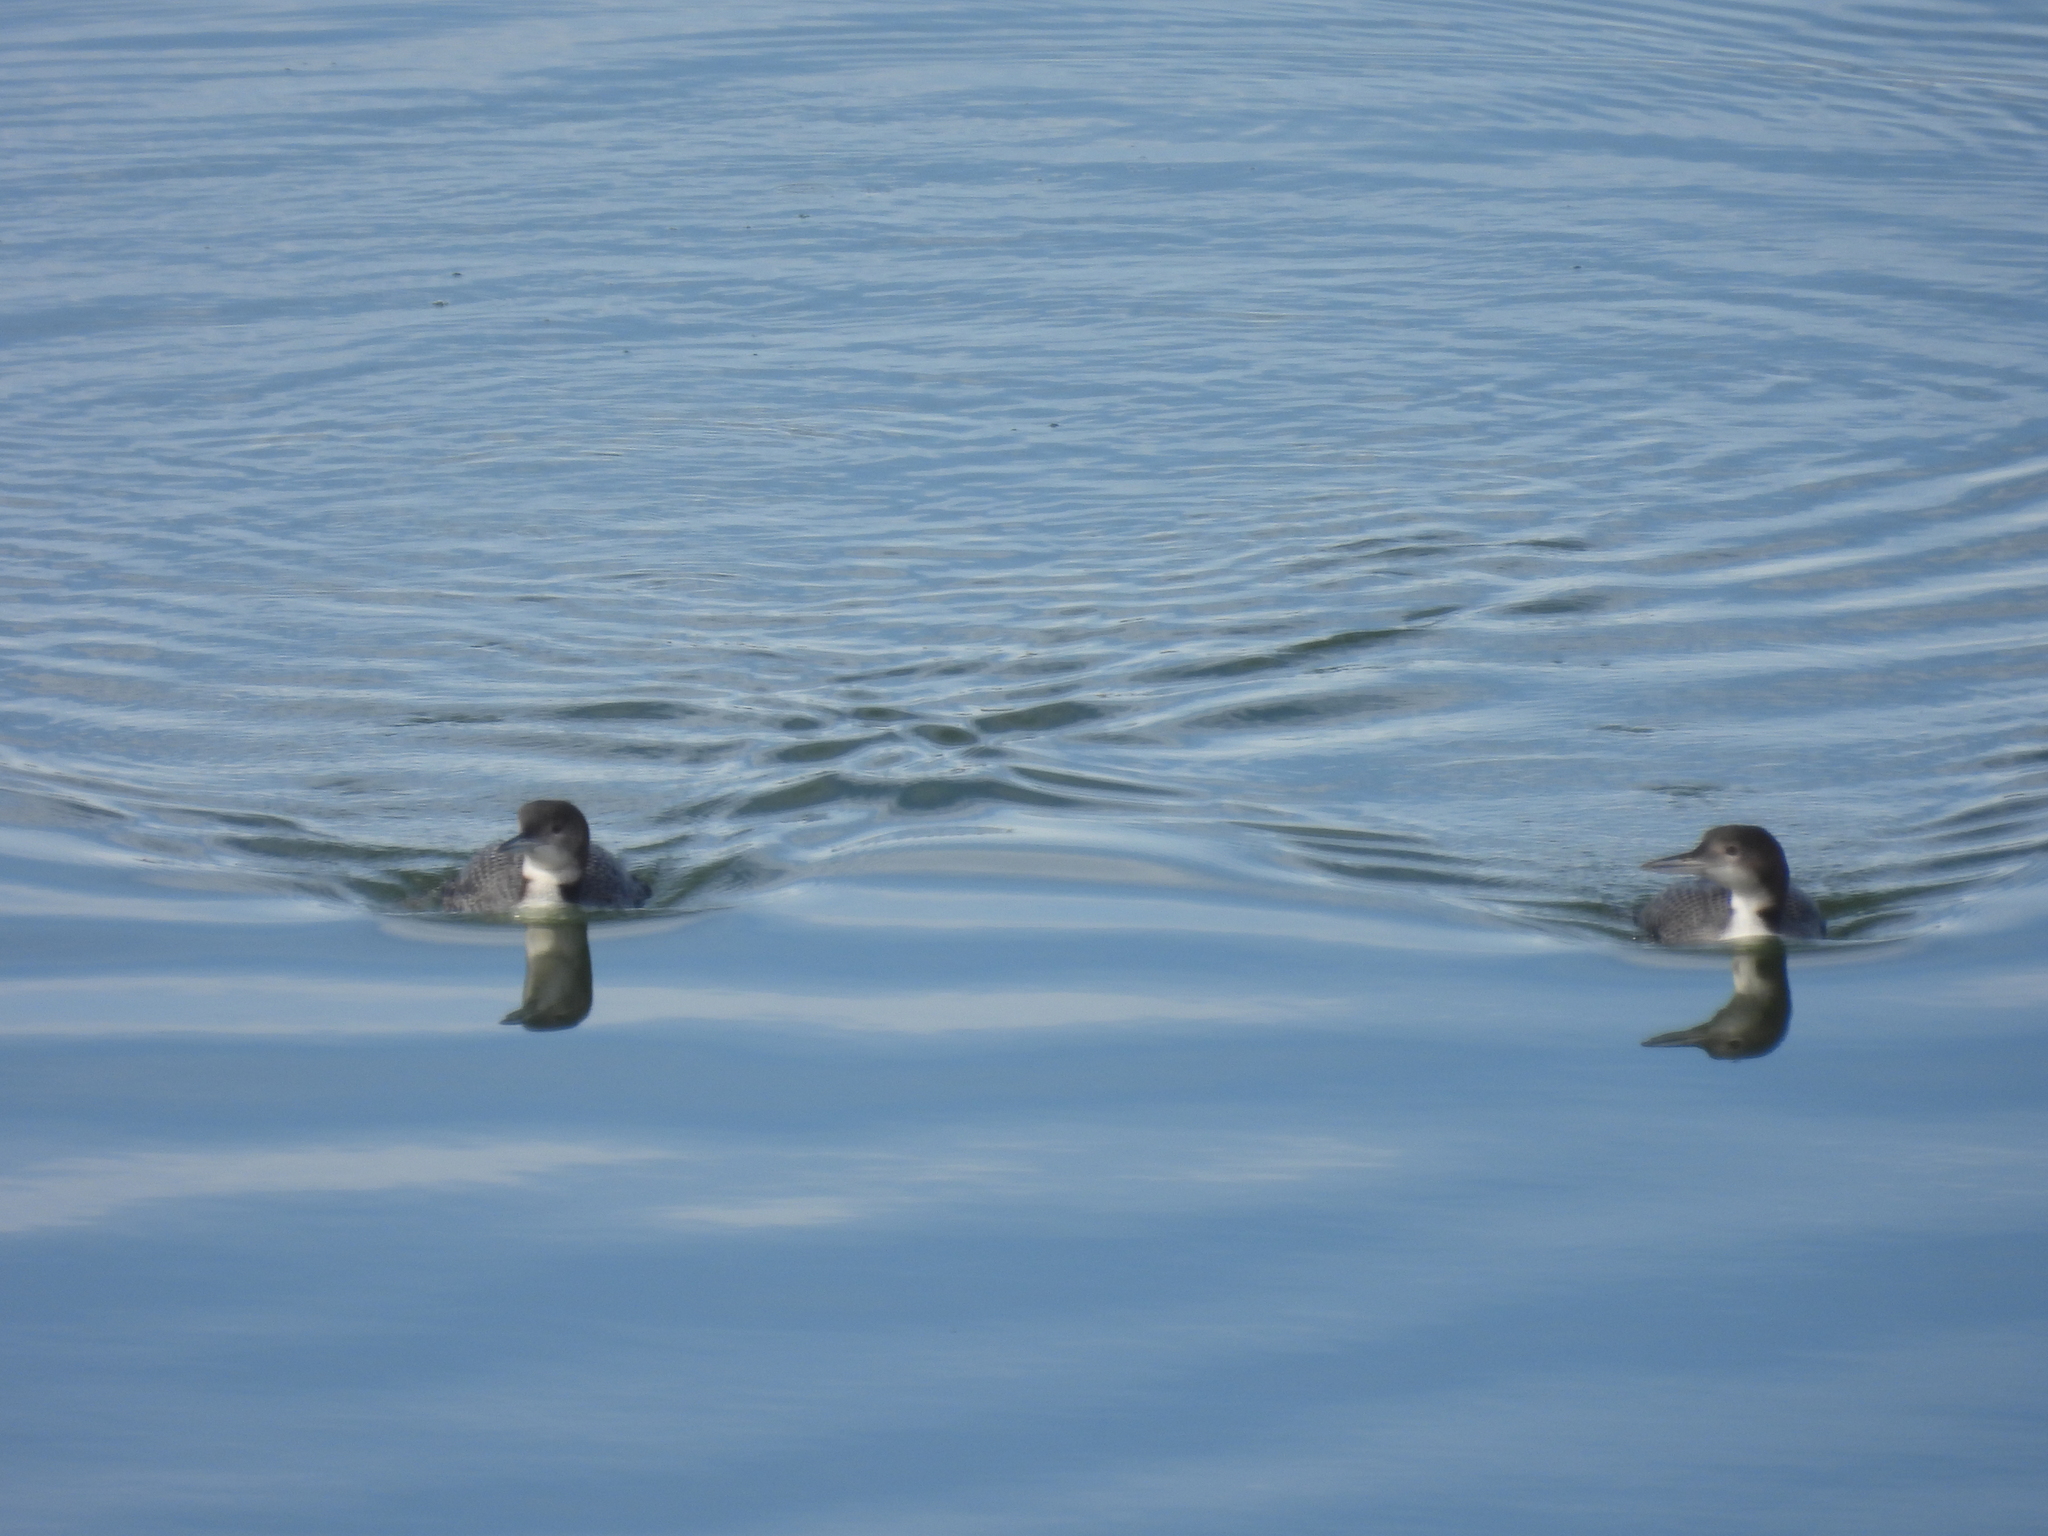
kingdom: Animalia
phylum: Chordata
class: Aves
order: Gaviiformes
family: Gaviidae
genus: Gavia
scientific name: Gavia immer
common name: Common loon
